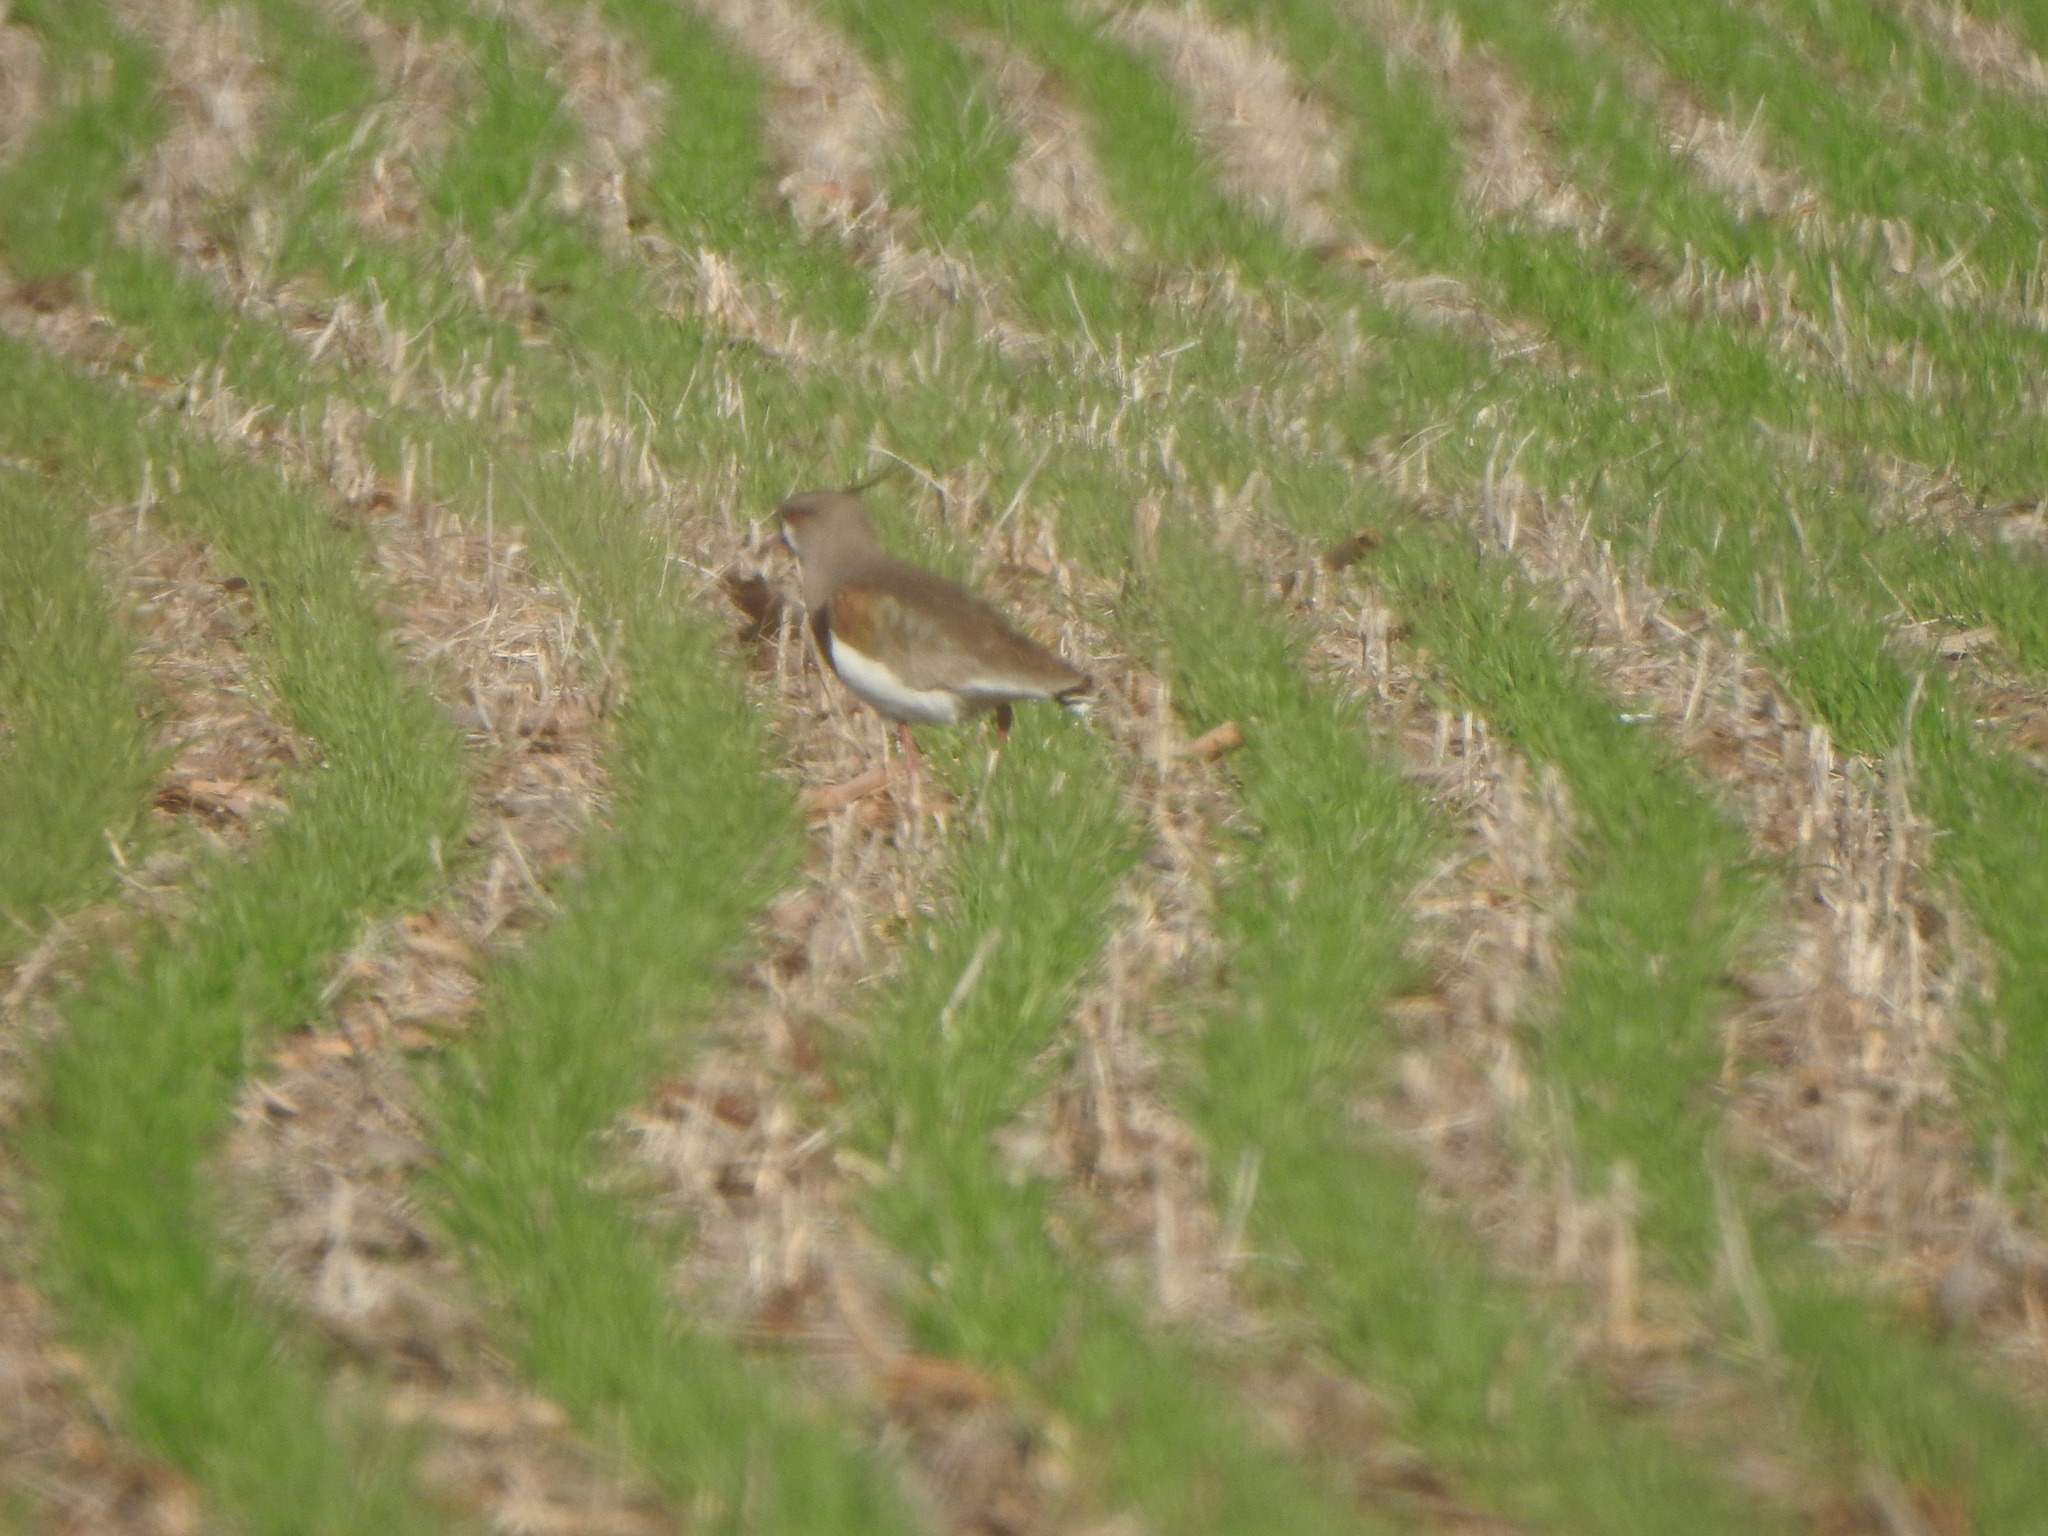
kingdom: Animalia
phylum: Chordata
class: Aves
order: Charadriiformes
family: Charadriidae
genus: Vanellus
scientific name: Vanellus chilensis
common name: Southern lapwing
